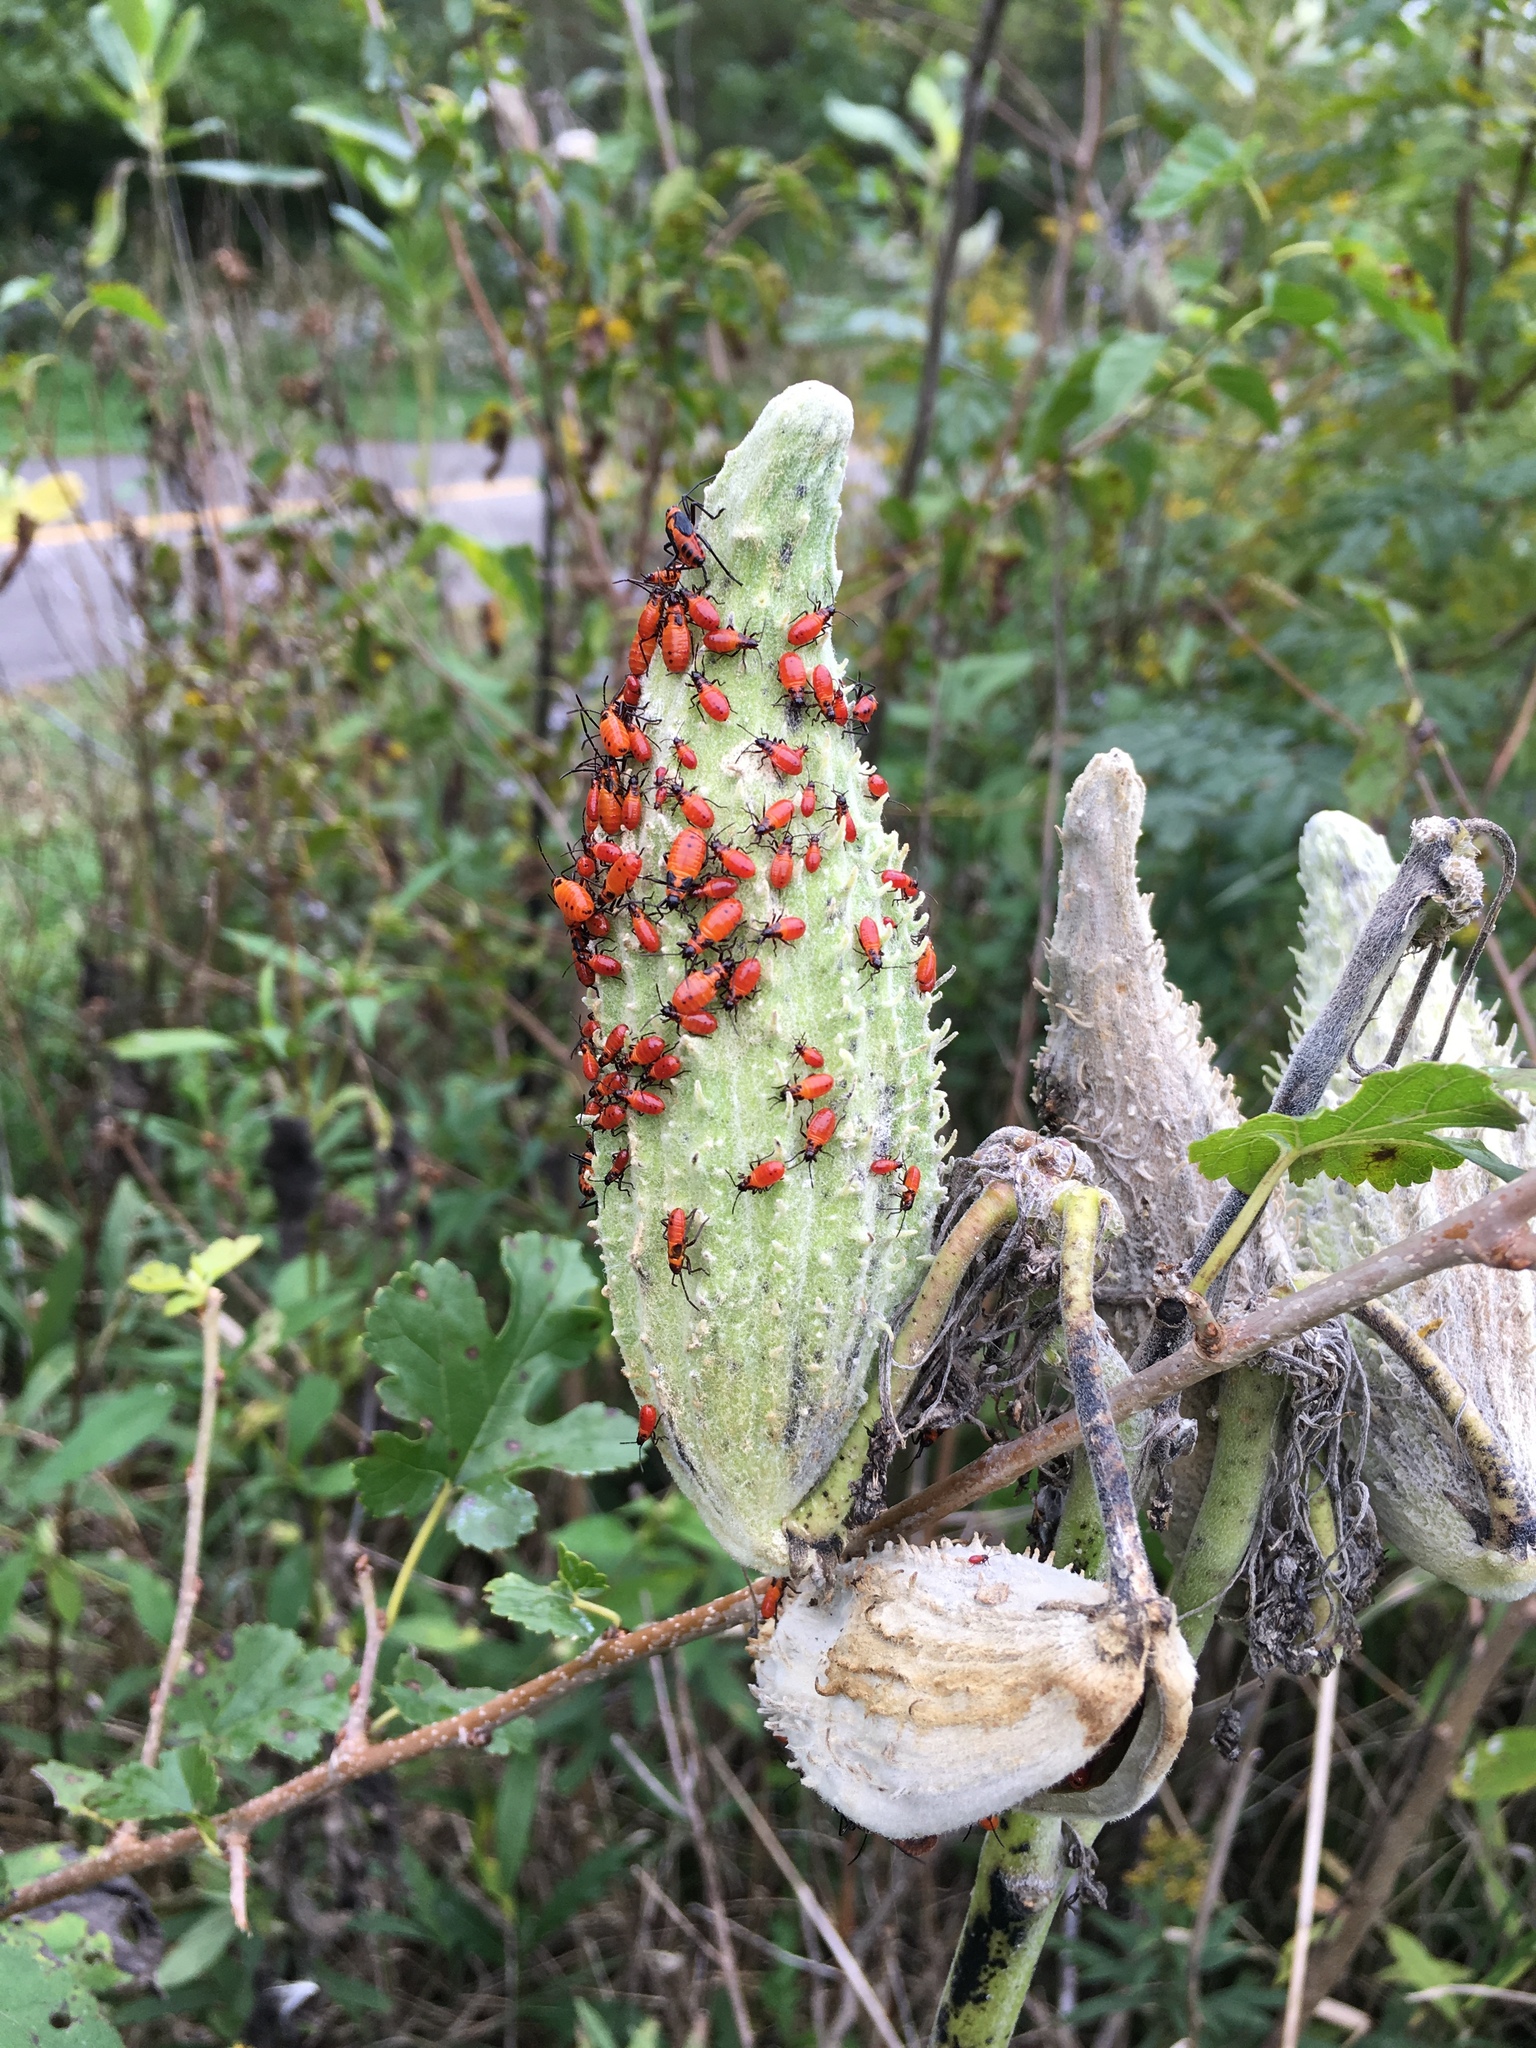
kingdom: Animalia
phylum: Arthropoda
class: Insecta
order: Hemiptera
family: Lygaeidae
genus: Oncopeltus
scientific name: Oncopeltus fasciatus
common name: Large milkweed bug
